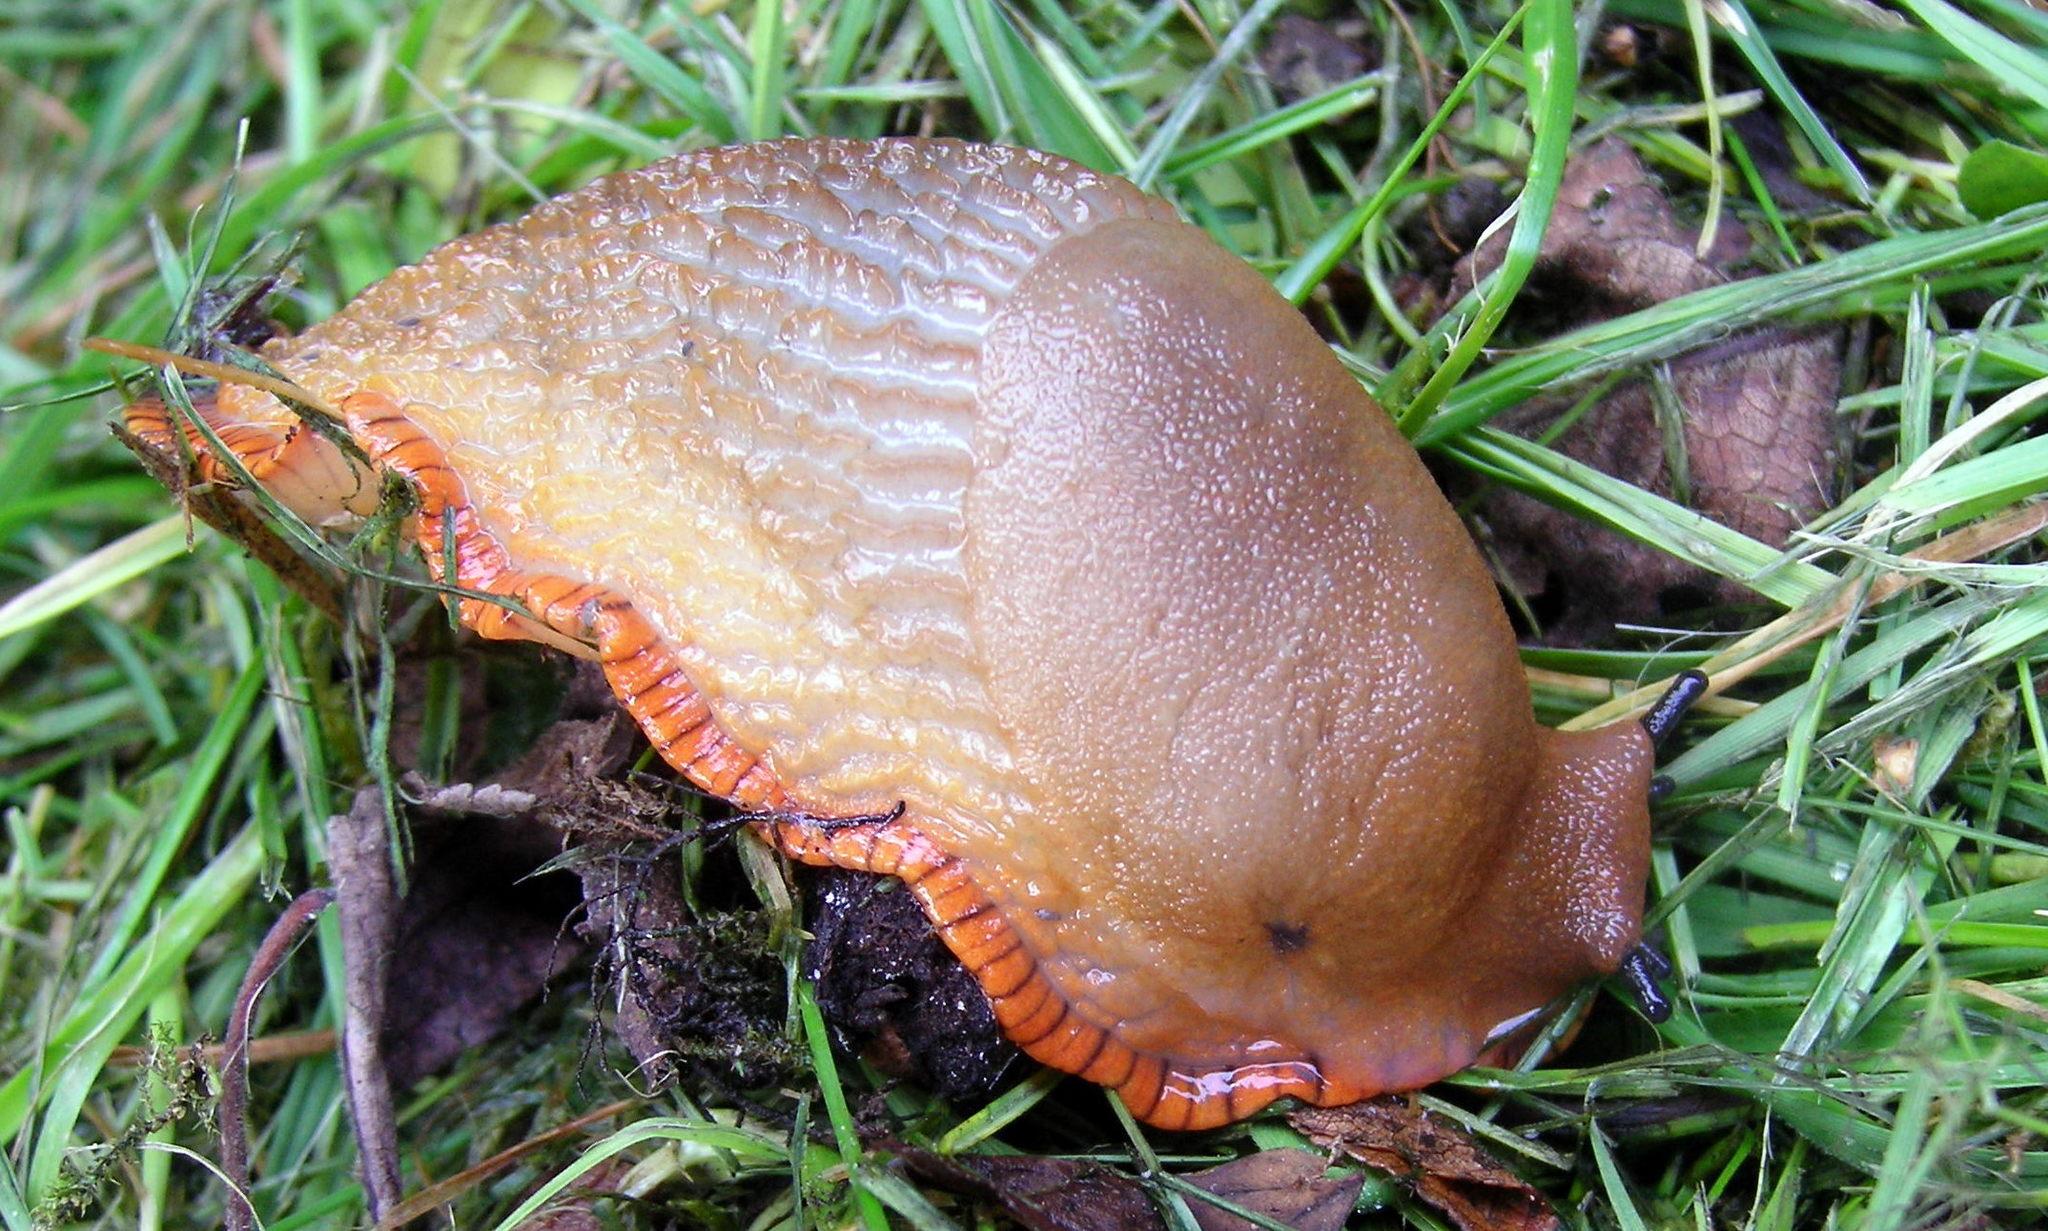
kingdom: Animalia
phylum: Mollusca
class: Gastropoda
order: Stylommatophora
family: Arionidae
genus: Arion
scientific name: Arion
